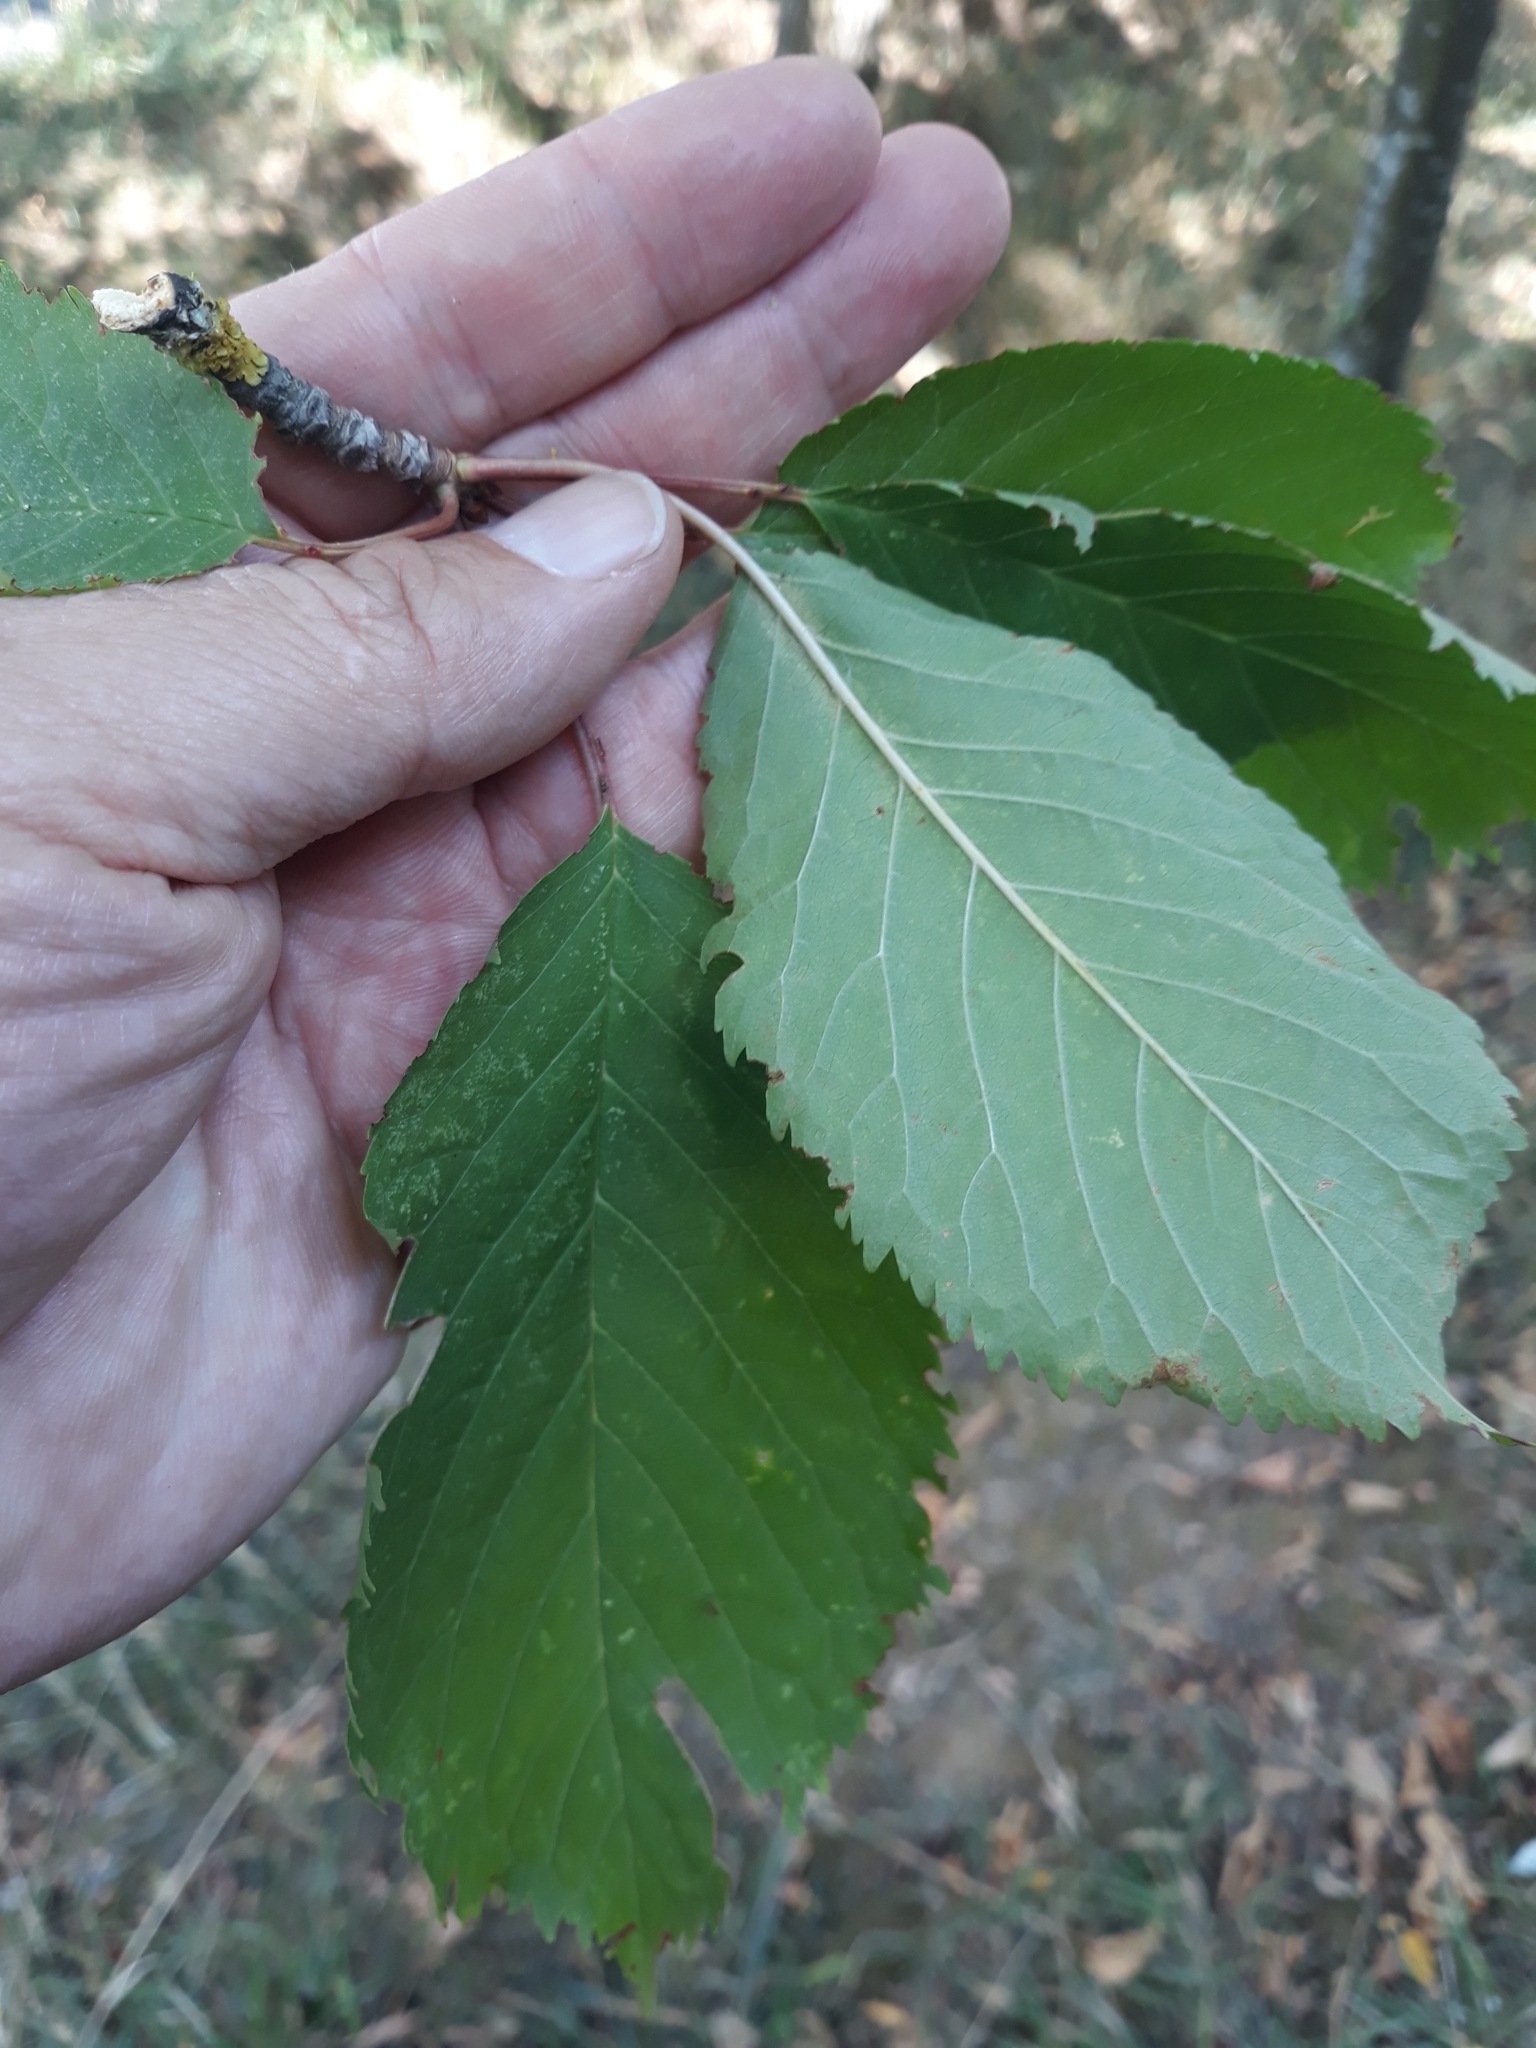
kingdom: Plantae
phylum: Tracheophyta
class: Magnoliopsida
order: Rosales
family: Rosaceae
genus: Prunus
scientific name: Prunus avium
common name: Sweet cherry
